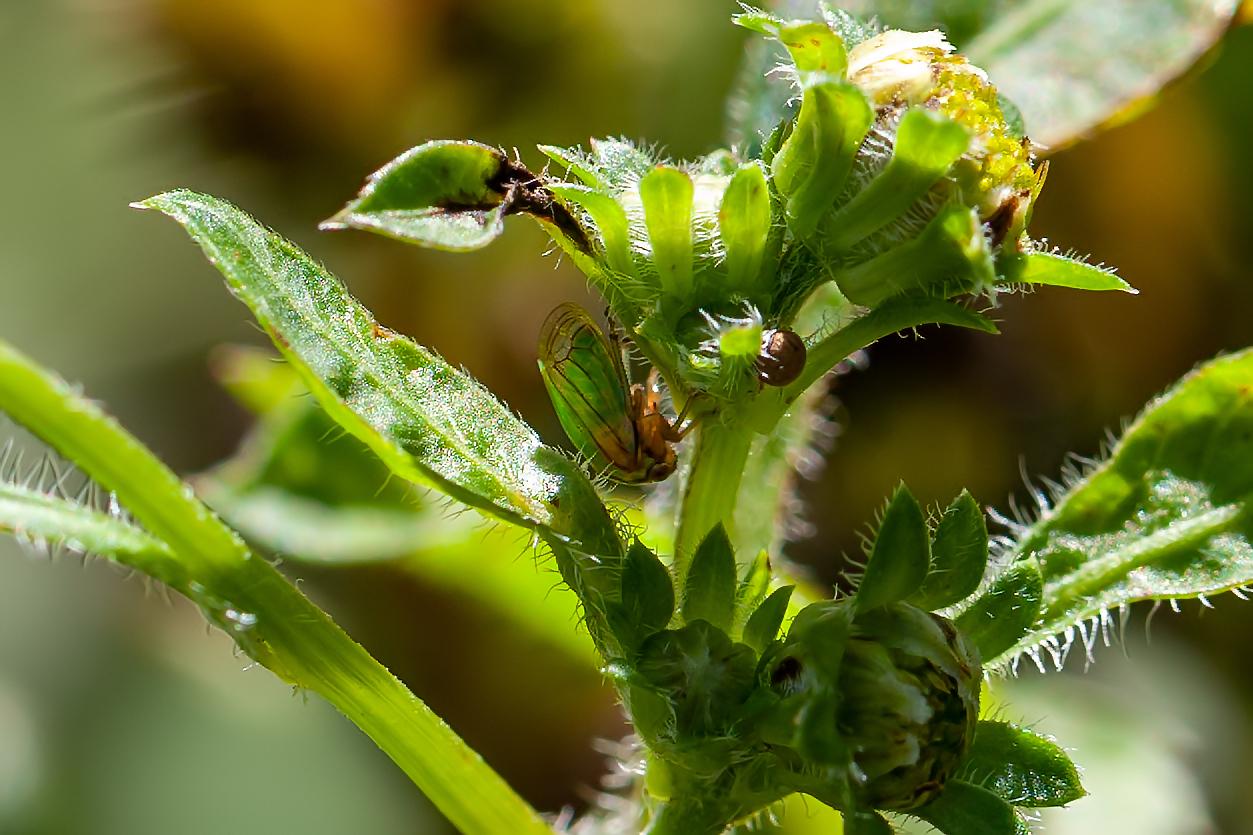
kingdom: Animalia
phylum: Arthropoda
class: Insecta
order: Hemiptera
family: Membracidae
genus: Acutalis
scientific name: Acutalis tartarea
